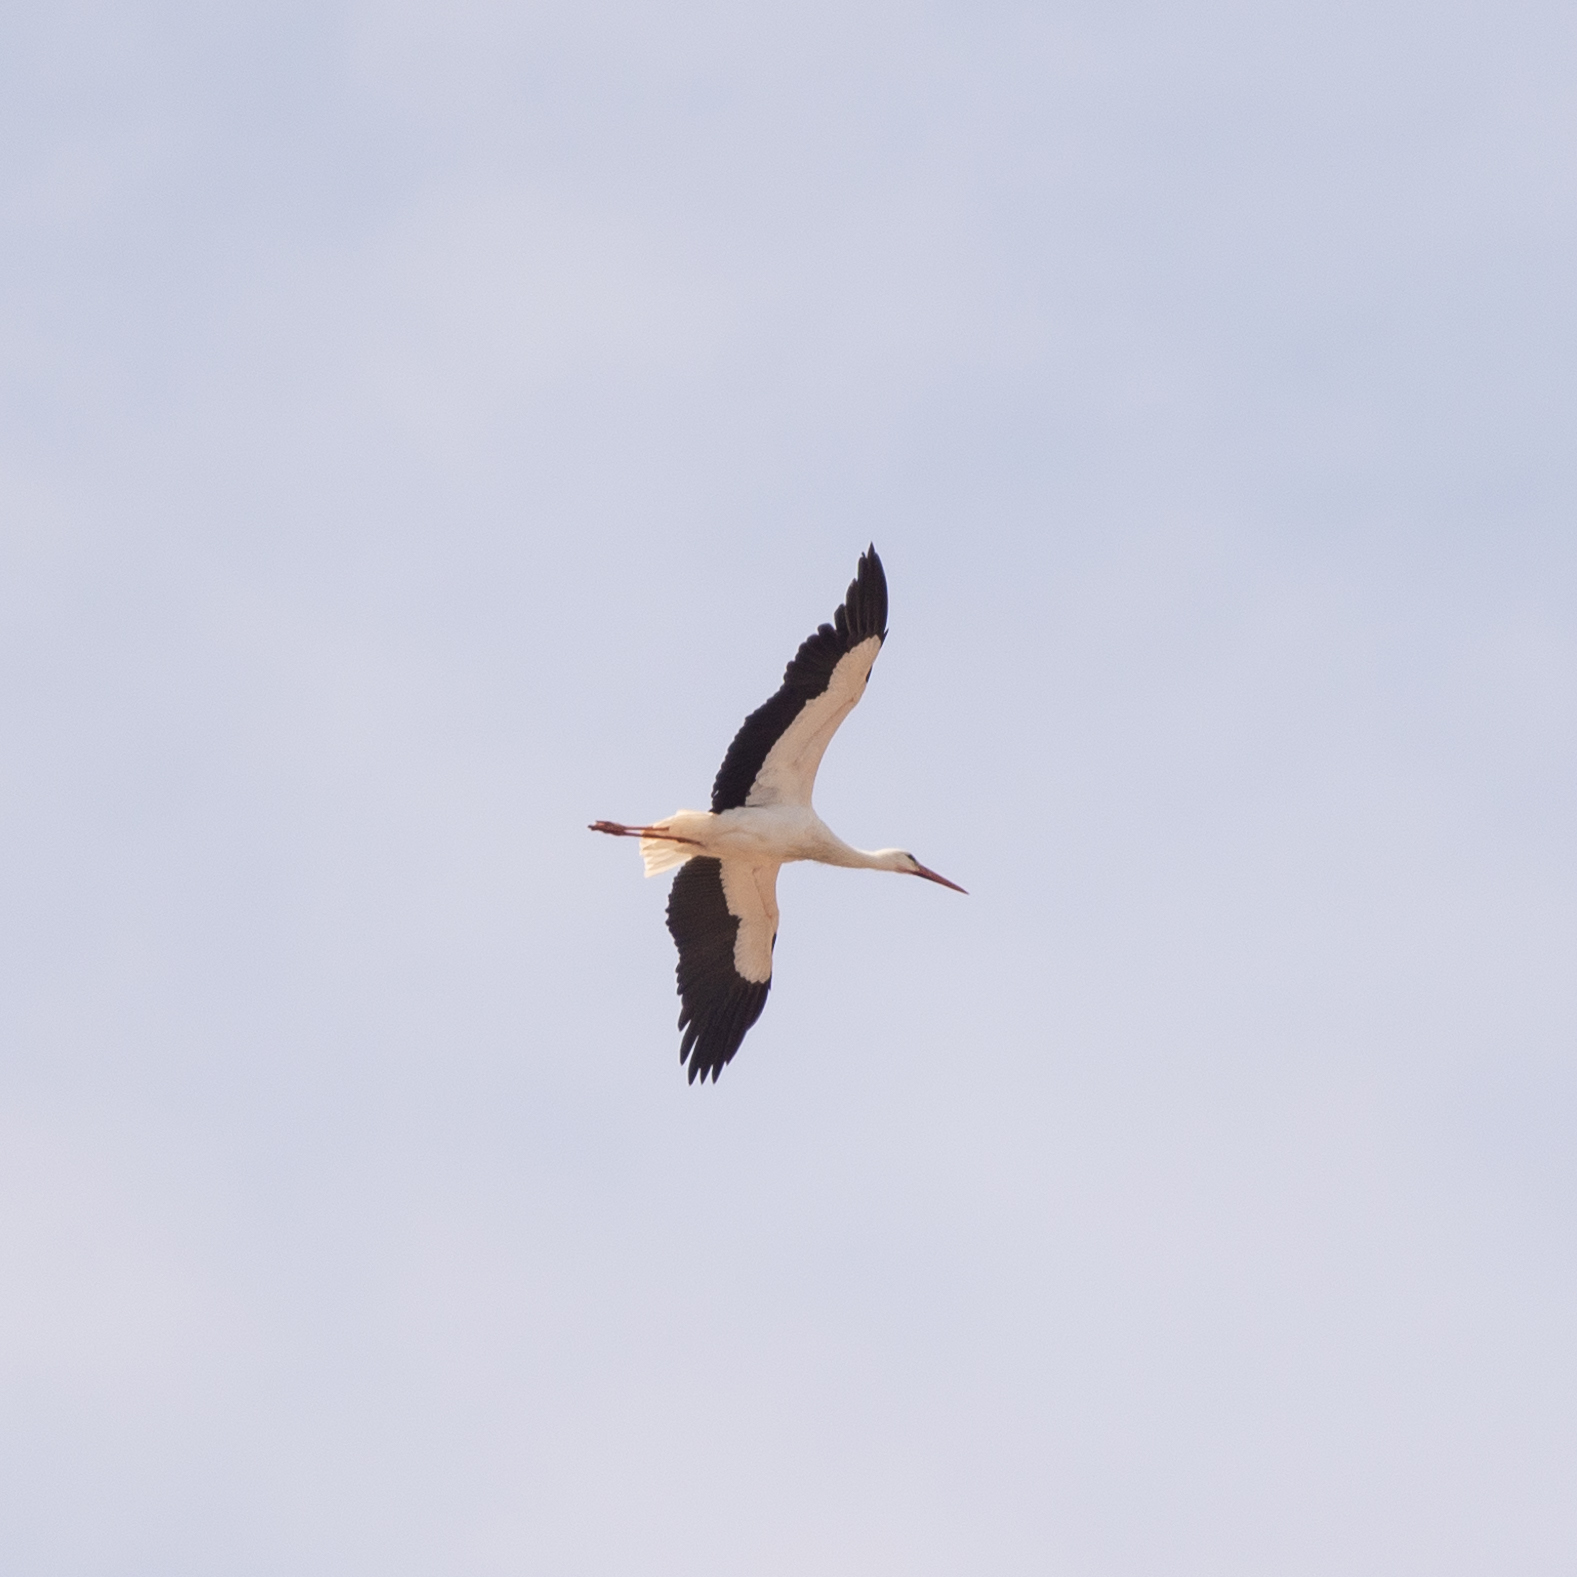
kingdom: Animalia
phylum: Chordata
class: Aves
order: Ciconiiformes
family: Ciconiidae
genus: Ciconia
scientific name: Ciconia ciconia
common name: White stork
